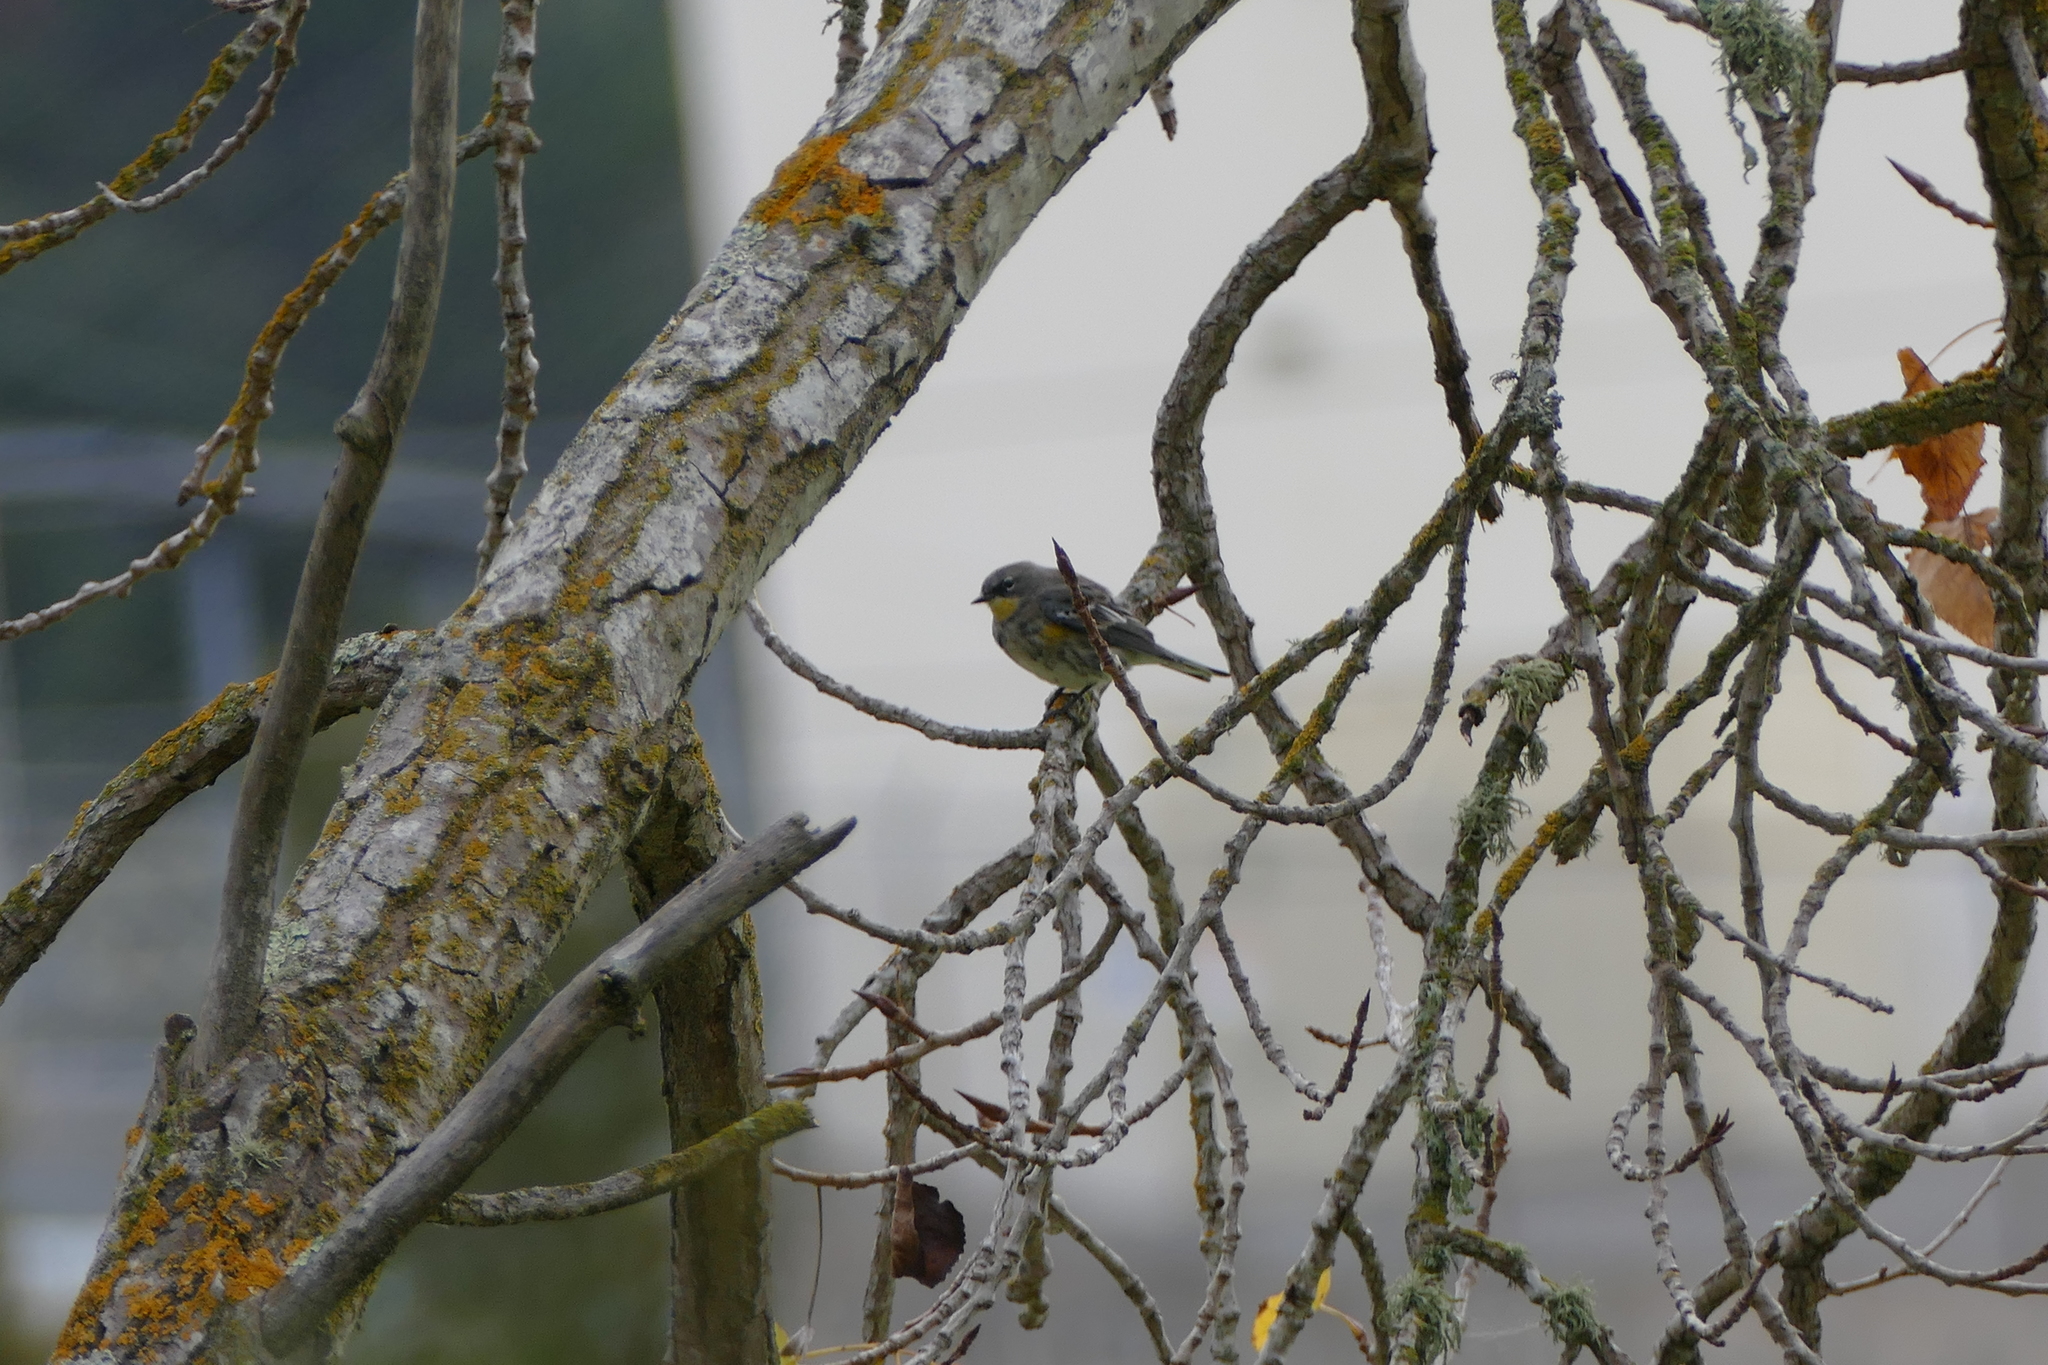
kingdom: Animalia
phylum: Chordata
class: Aves
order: Passeriformes
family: Parulidae
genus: Setophaga
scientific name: Setophaga coronata
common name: Myrtle warbler
